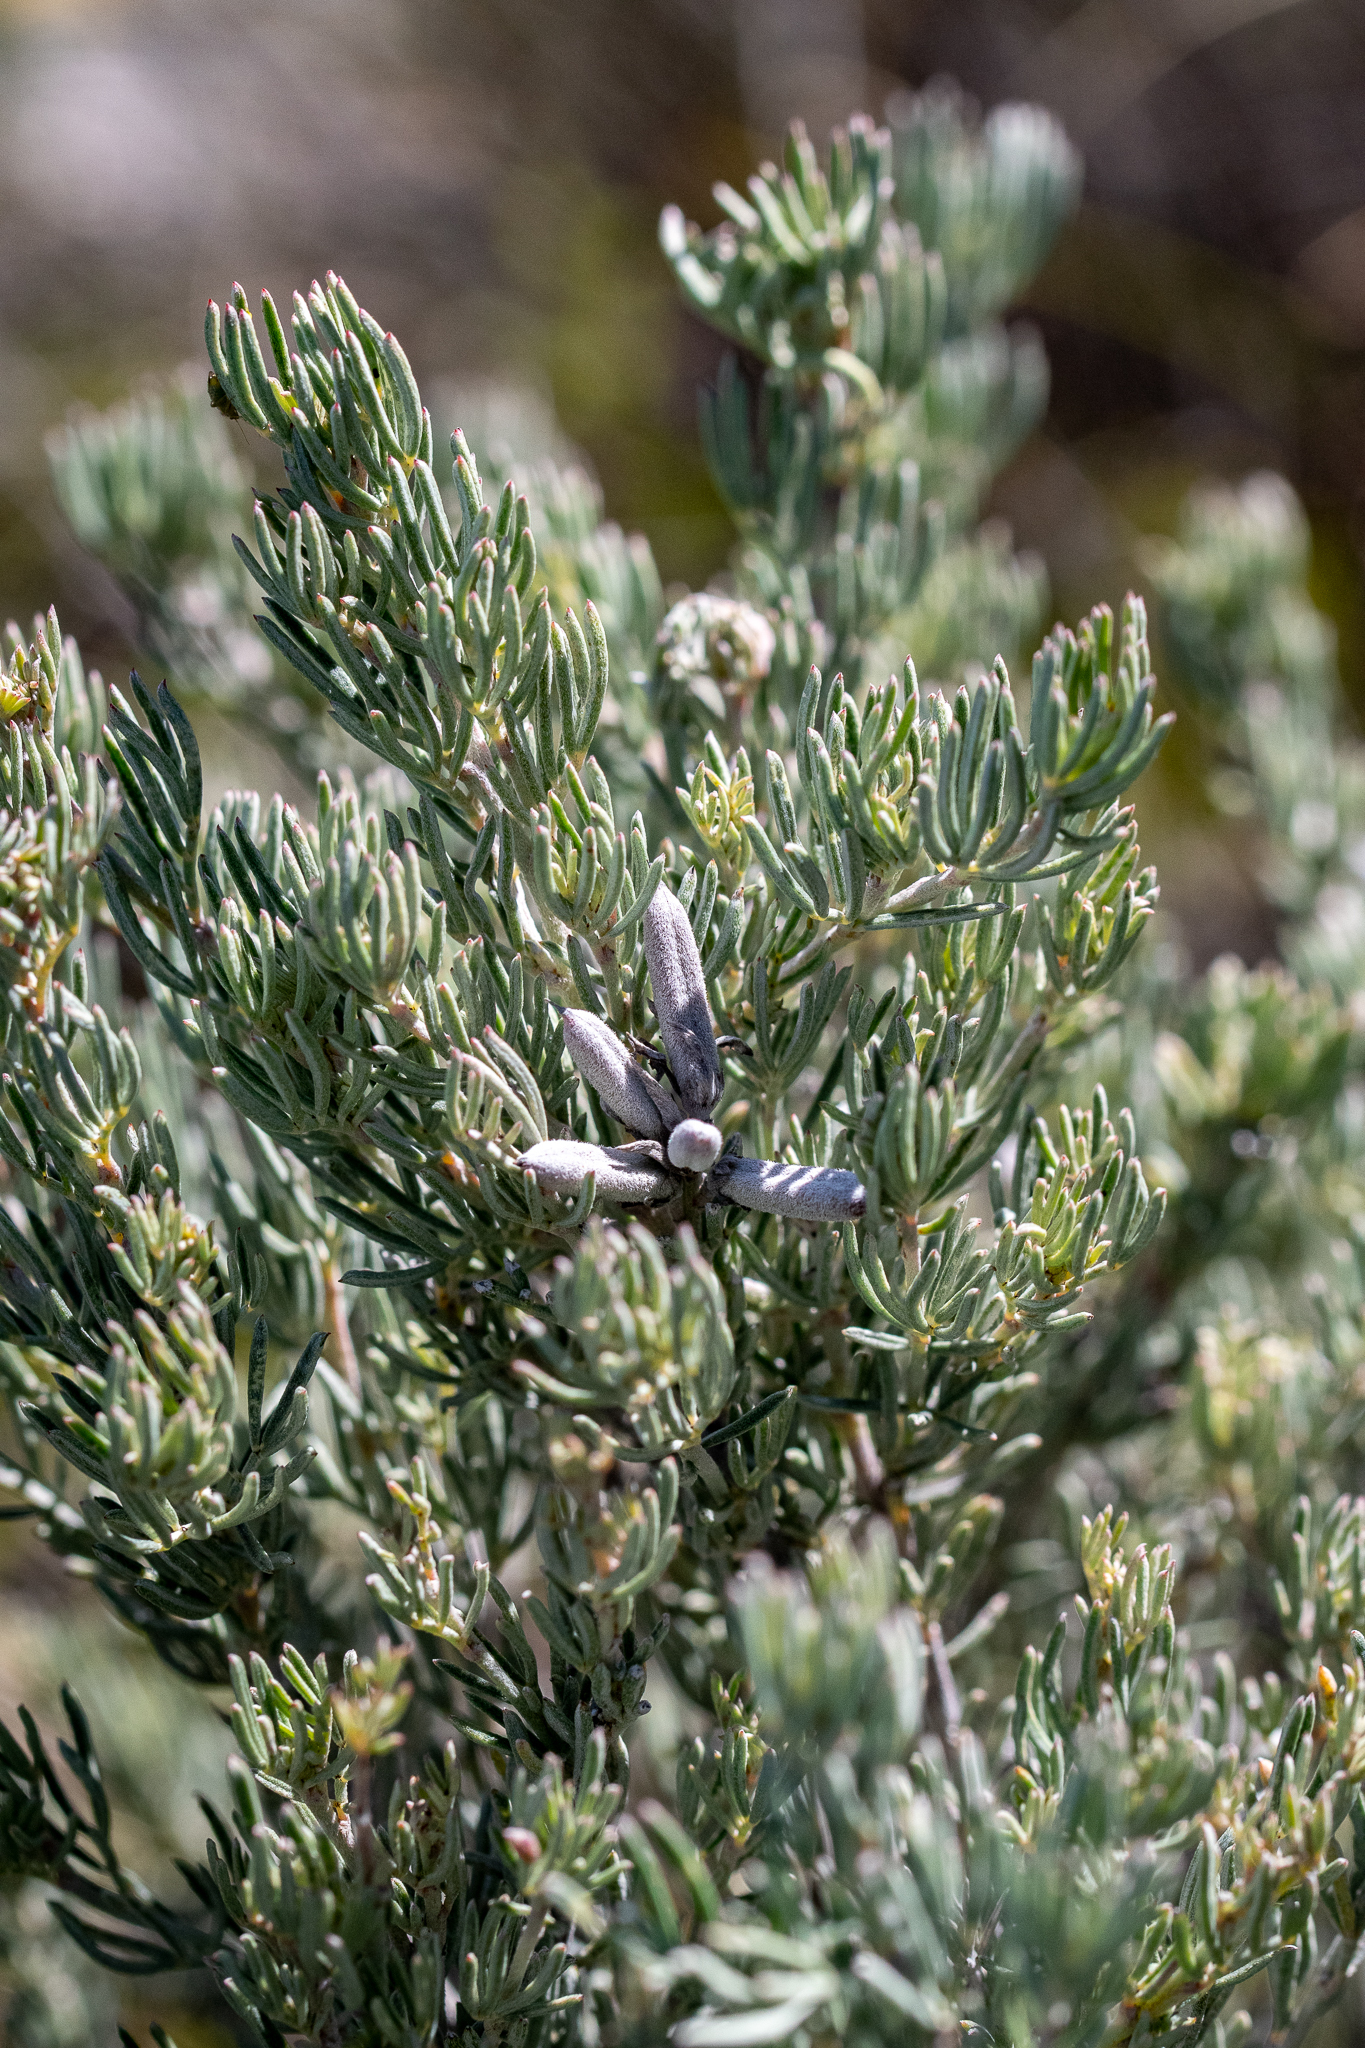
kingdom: Plantae
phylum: Tracheophyta
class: Magnoliopsida
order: Fabales
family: Fabaceae
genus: Indigofera
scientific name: Indigofera
